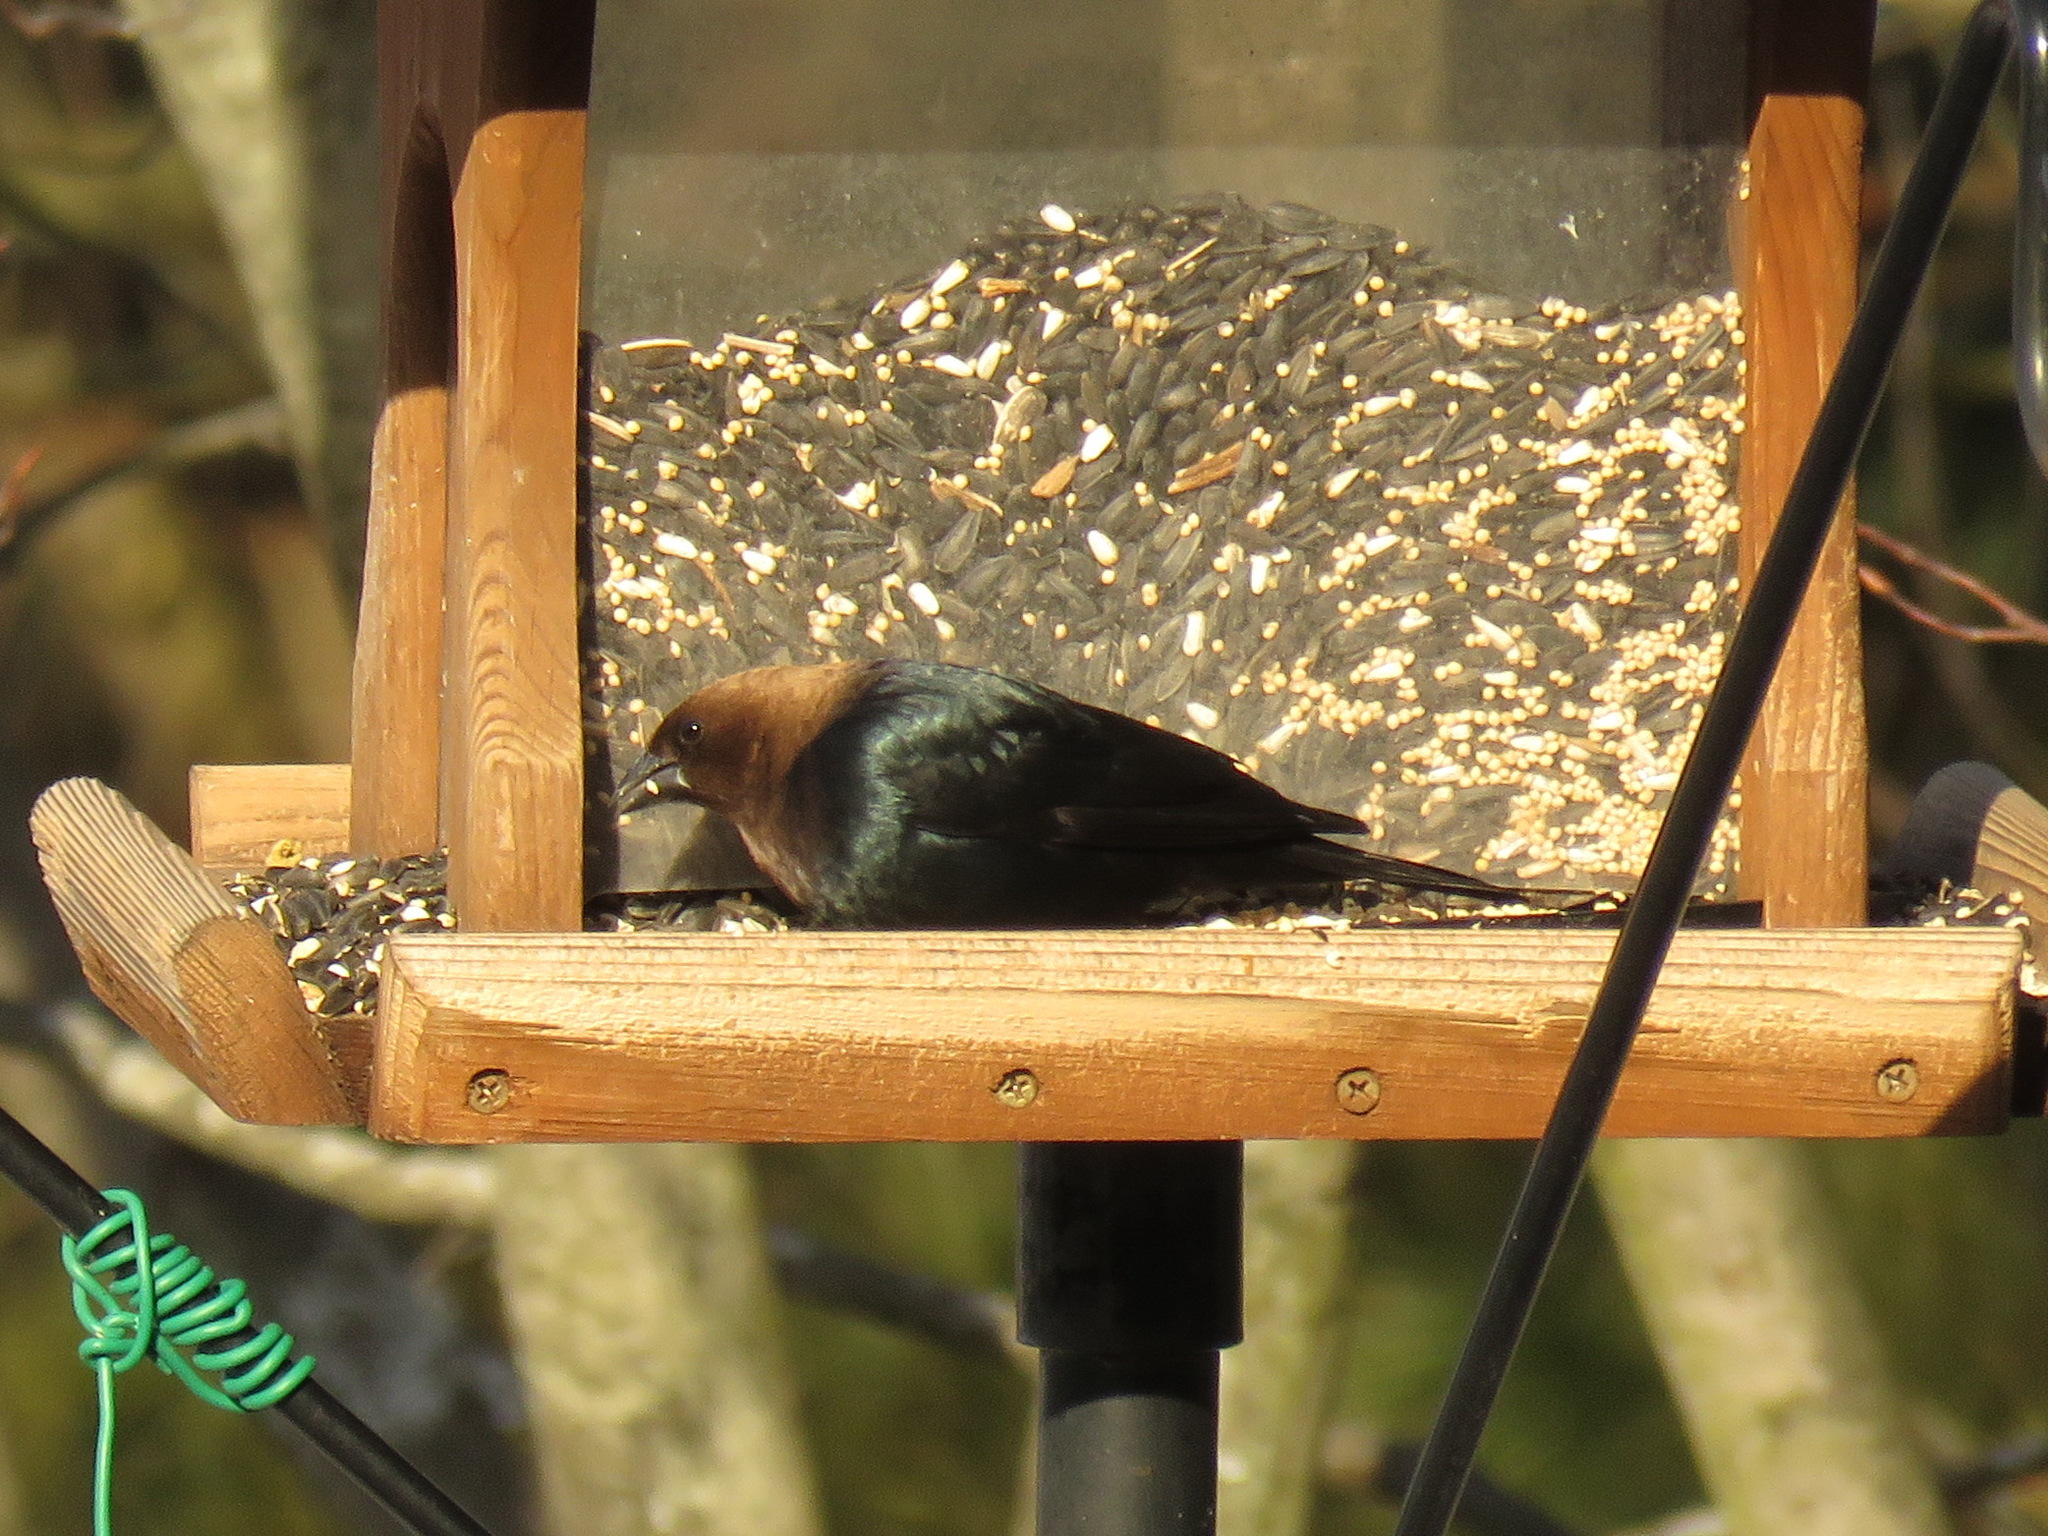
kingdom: Animalia
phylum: Chordata
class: Aves
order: Passeriformes
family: Icteridae
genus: Molothrus
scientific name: Molothrus ater
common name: Brown-headed cowbird
